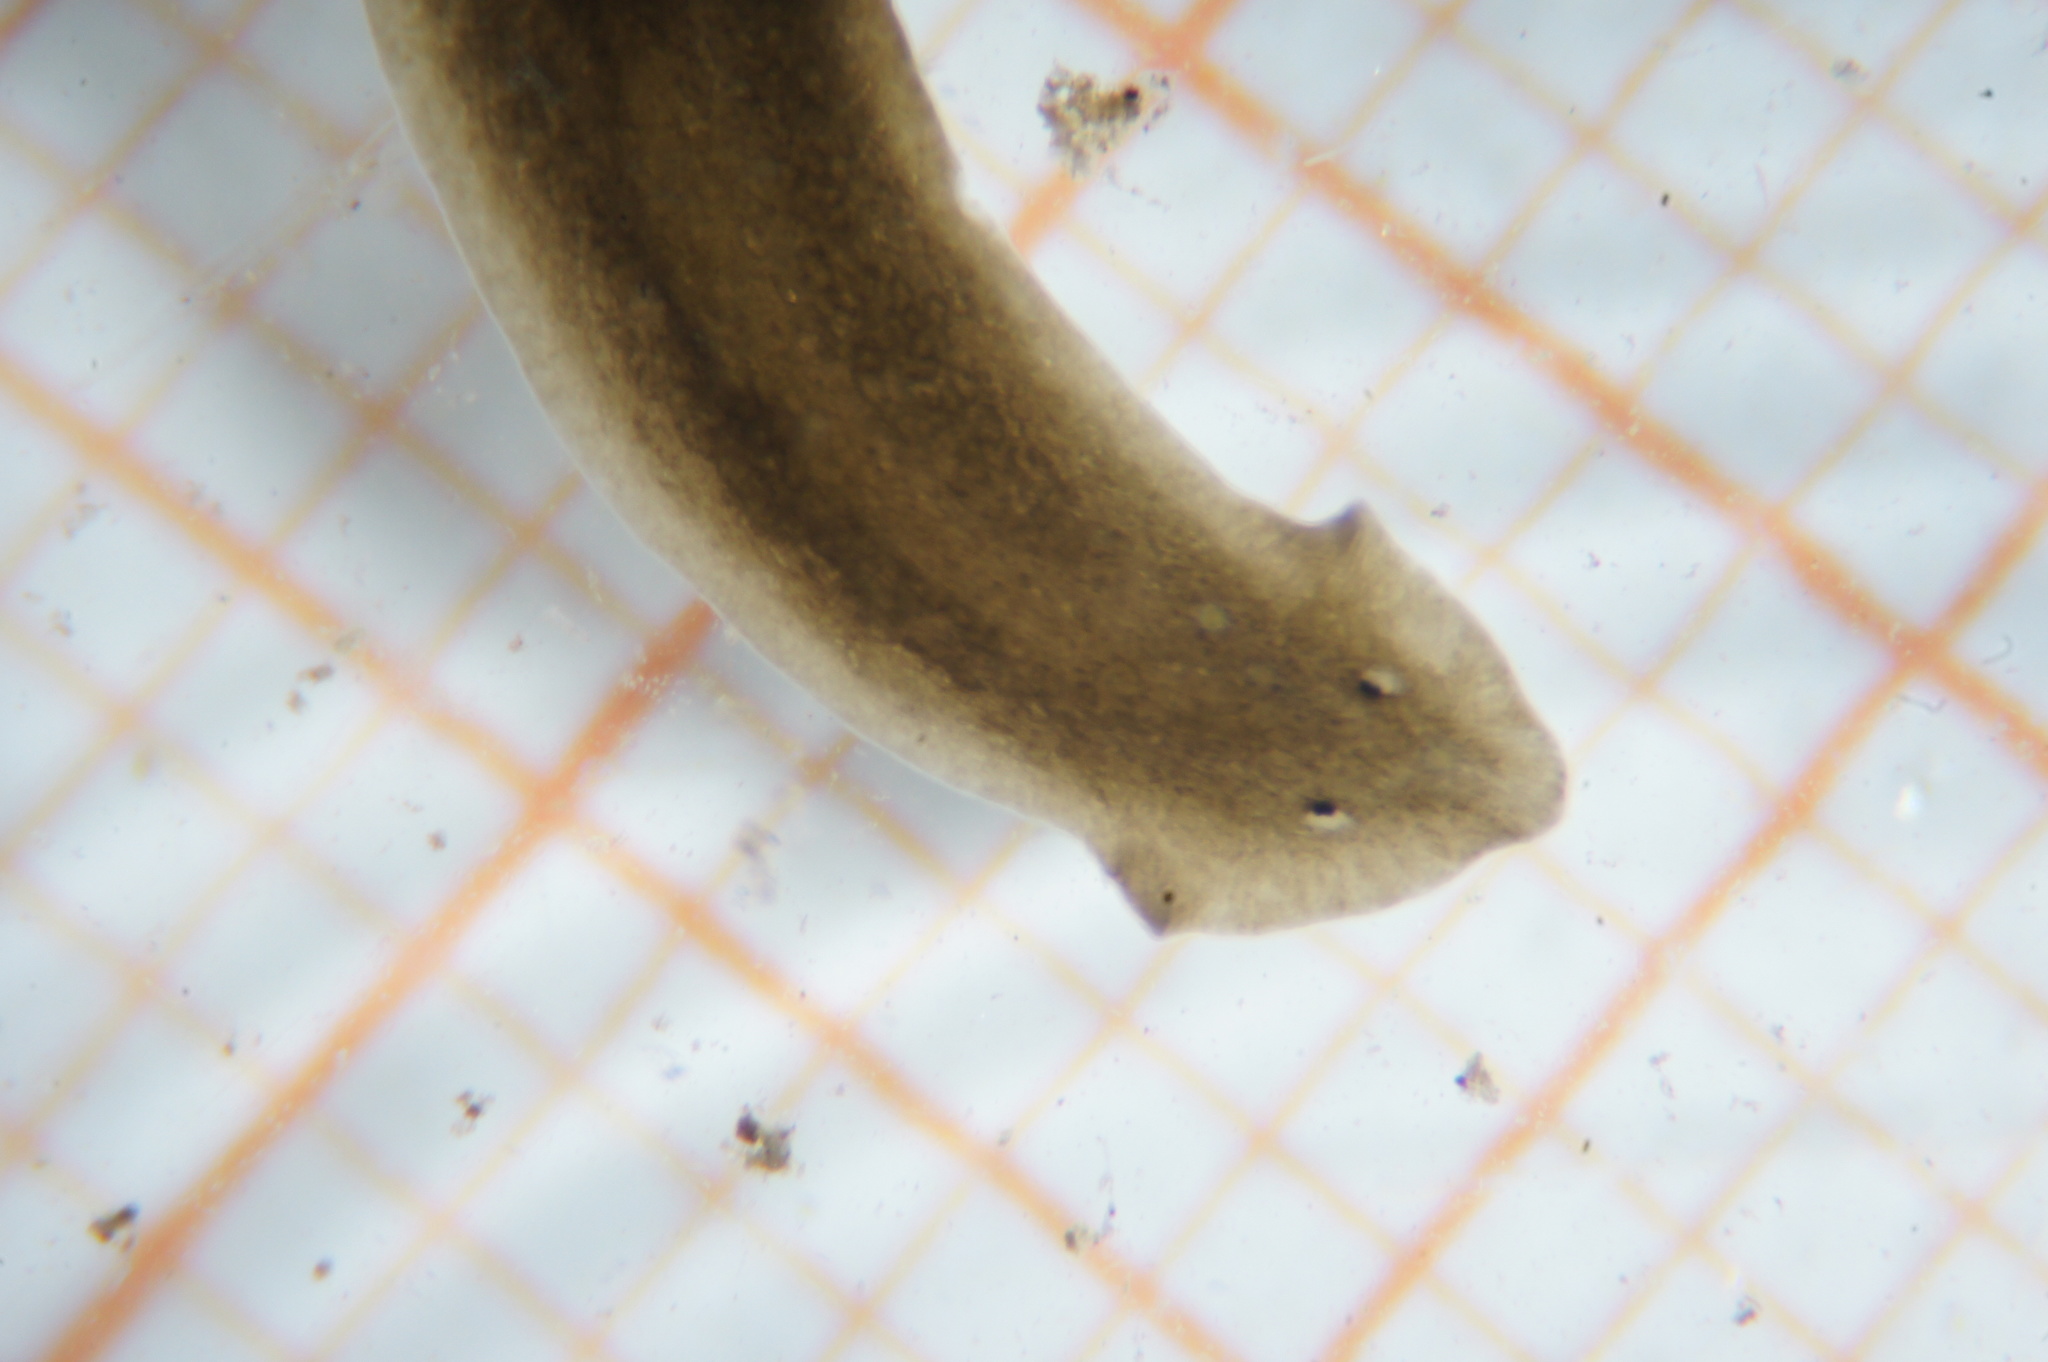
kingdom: Animalia
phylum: Platyhelminthes
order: Tricladida
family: Dugesiidae
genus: Dugesia
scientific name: Dugesia gonocephala
